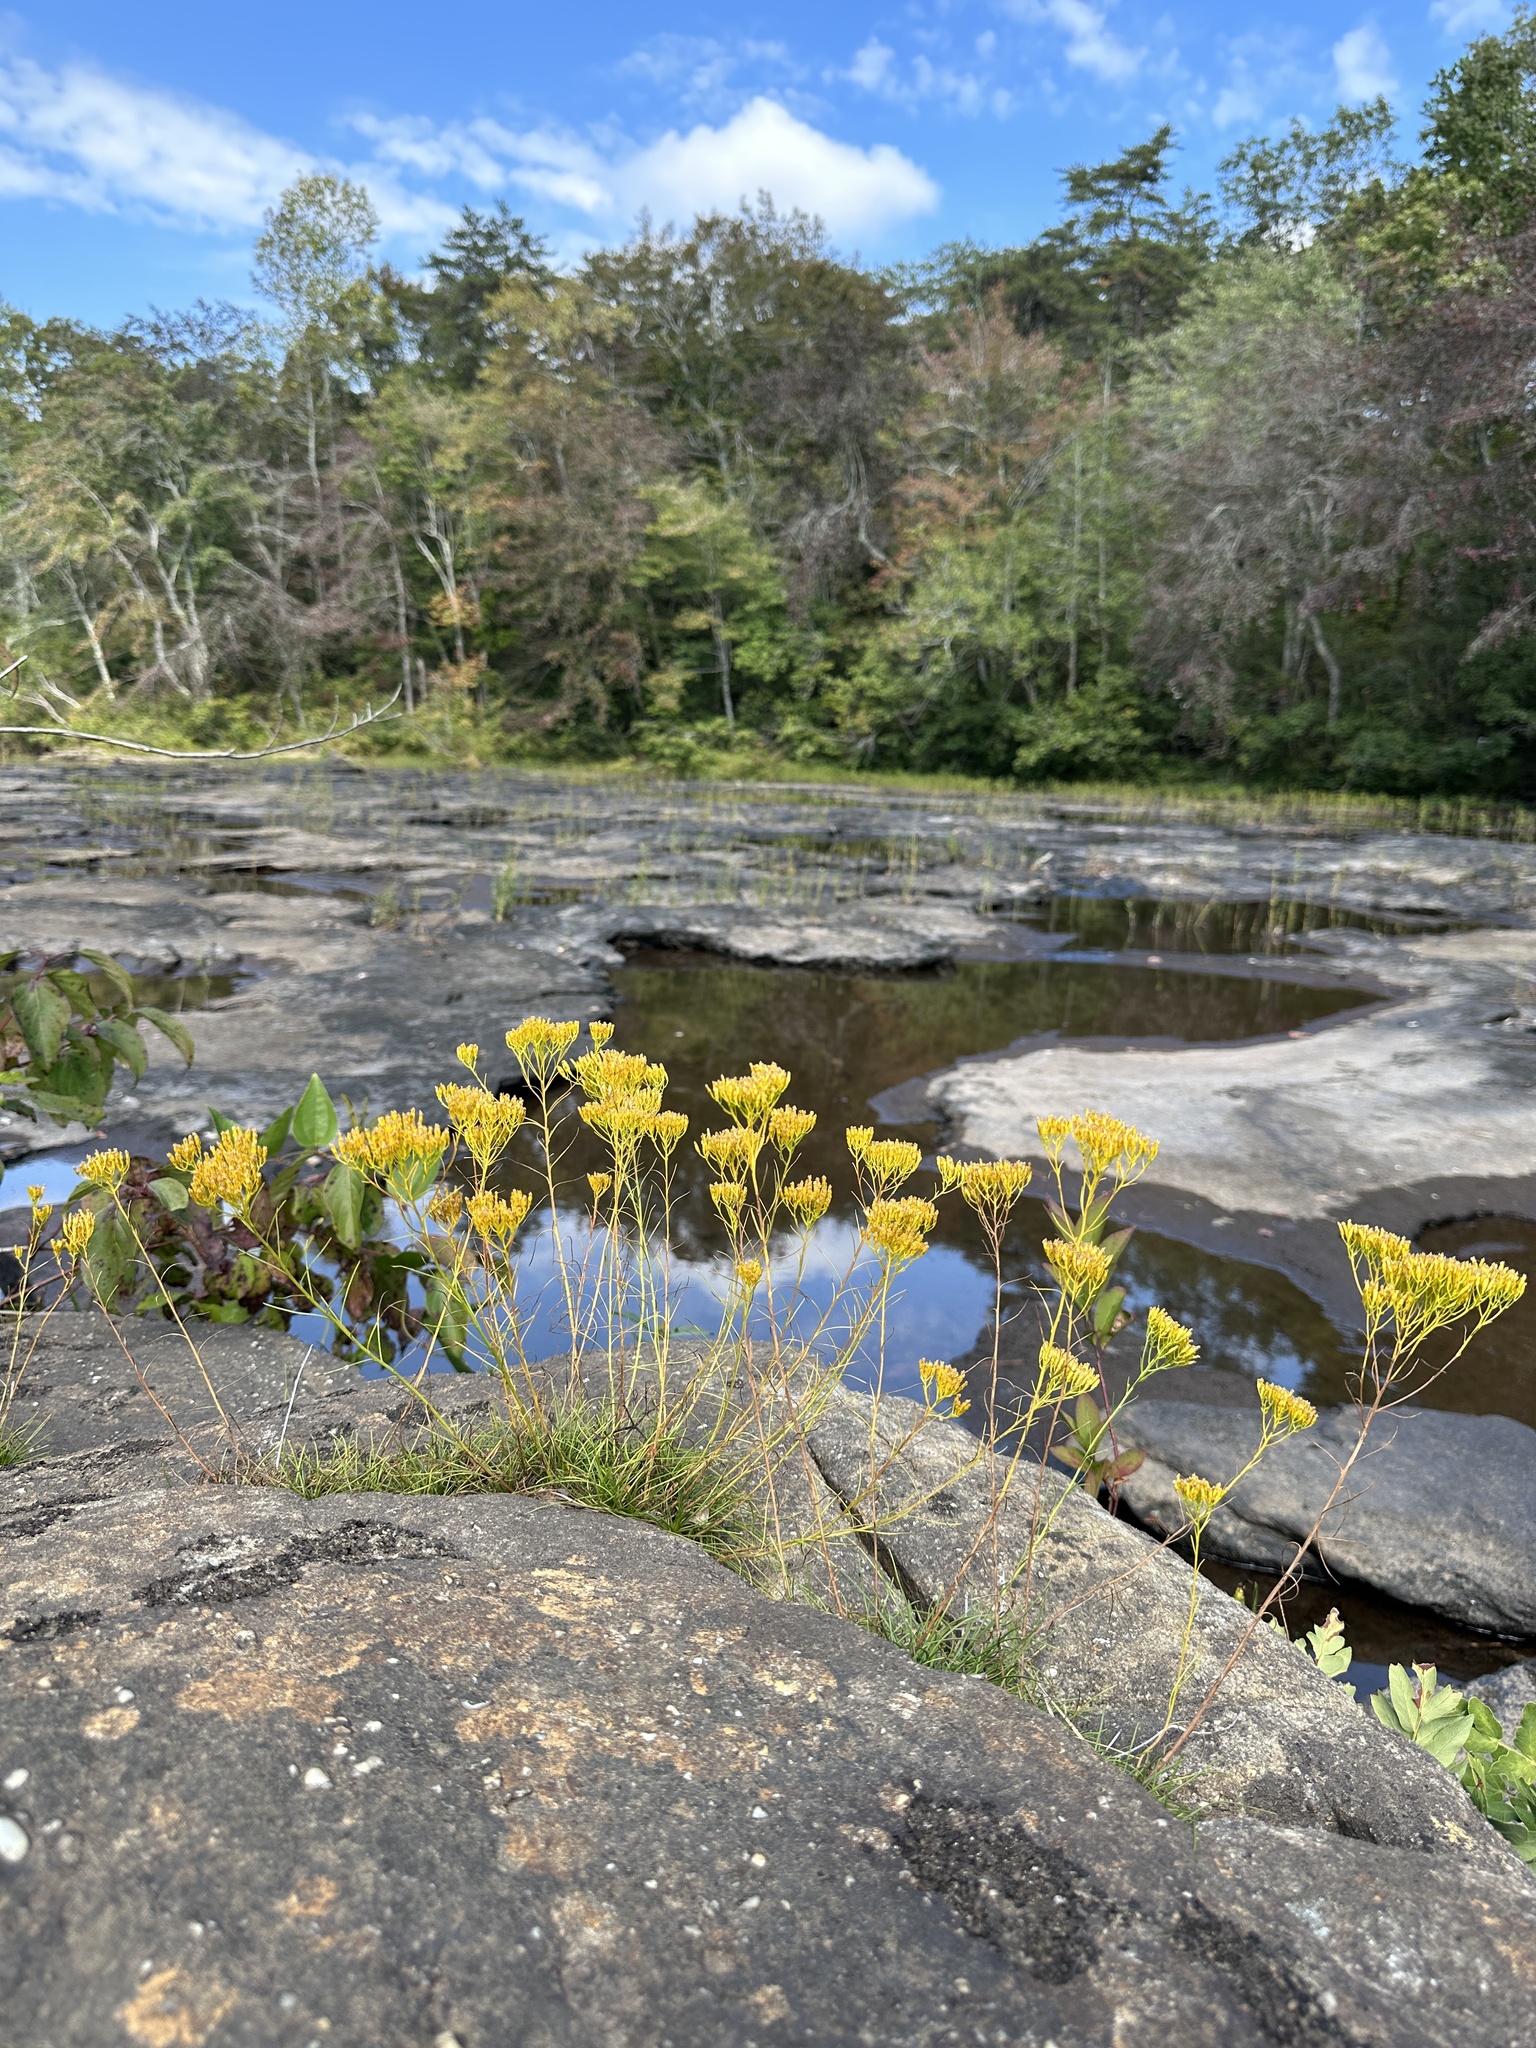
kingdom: Plantae
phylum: Tracheophyta
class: Magnoliopsida
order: Asterales
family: Asteraceae
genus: Bigelowia
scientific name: Bigelowia nuttallii
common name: Nuttall's rayless-goldenrod
